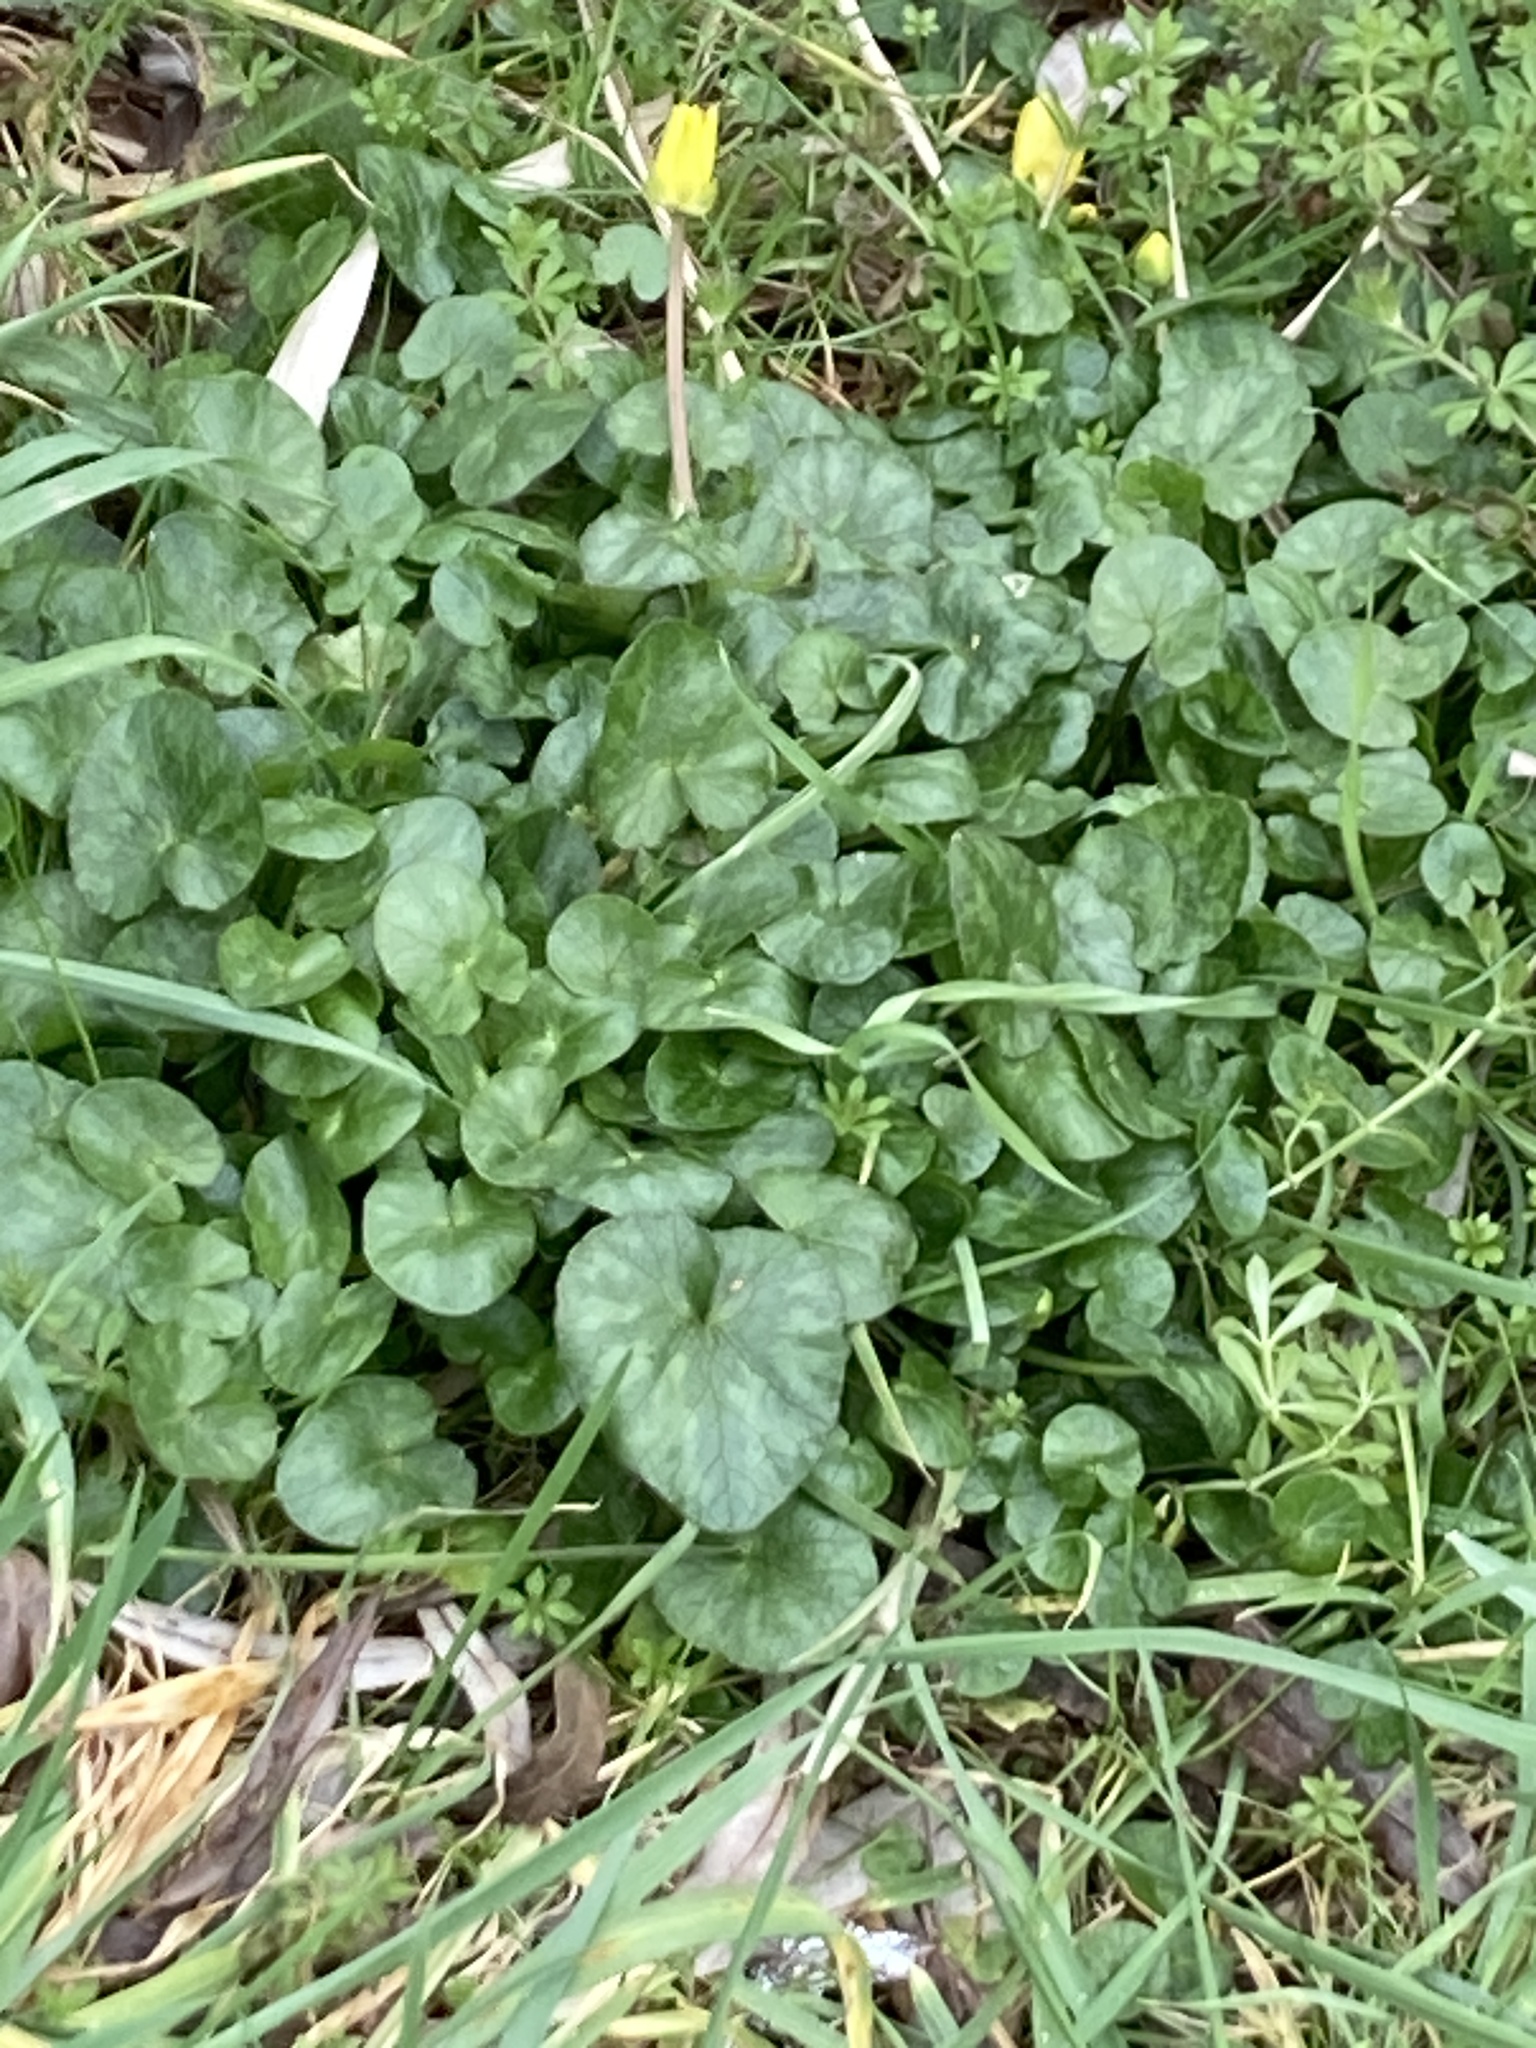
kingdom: Plantae
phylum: Tracheophyta
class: Magnoliopsida
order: Ranunculales
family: Ranunculaceae
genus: Ficaria
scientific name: Ficaria verna
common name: Lesser celandine
